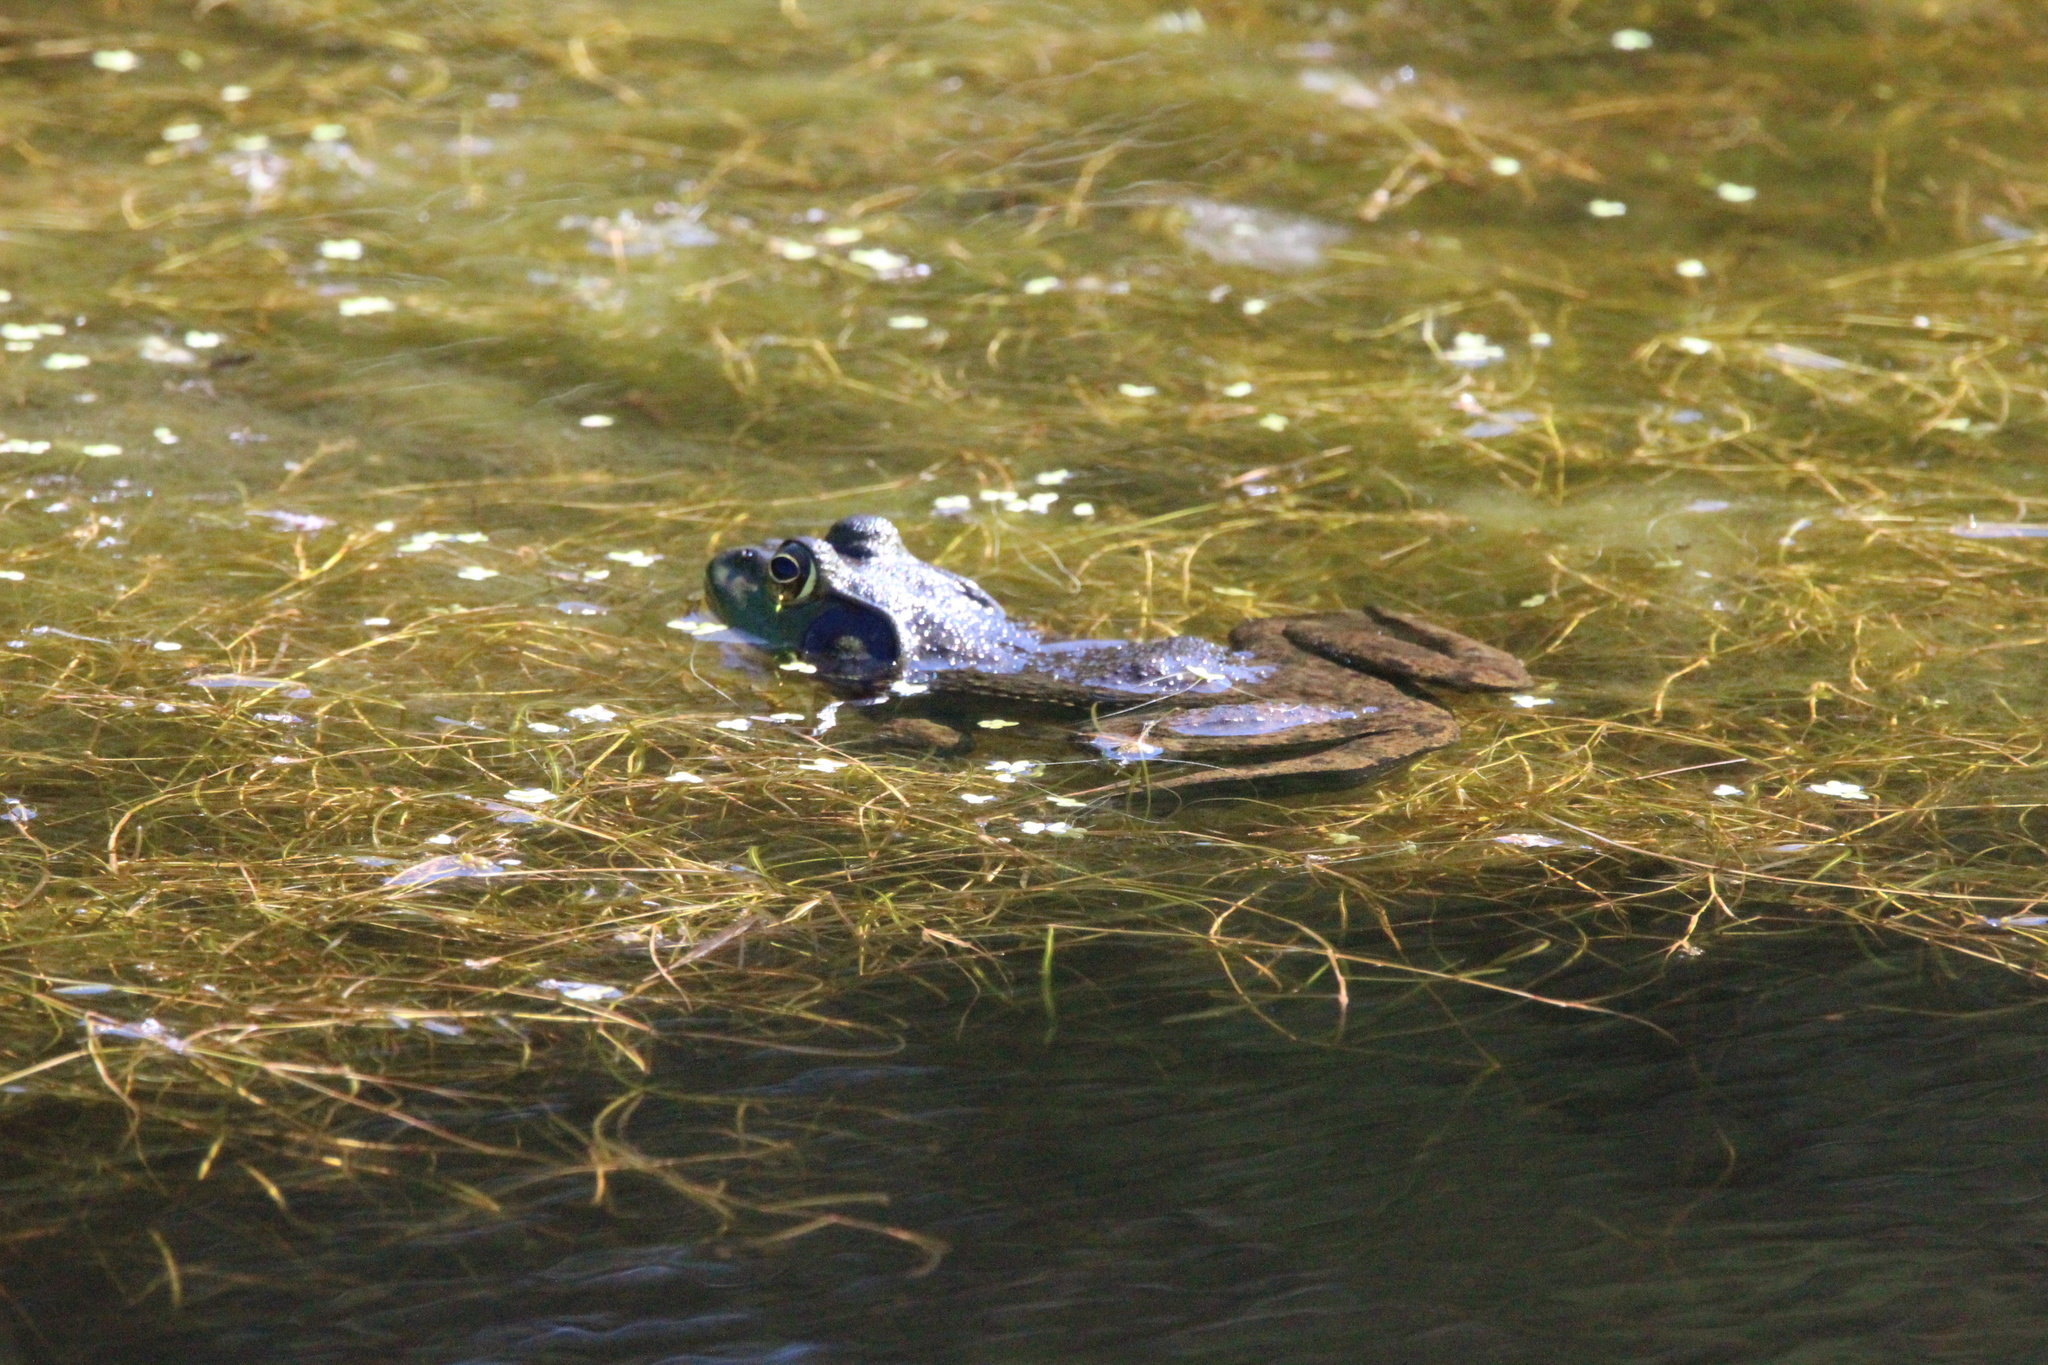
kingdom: Animalia
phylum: Chordata
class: Amphibia
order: Anura
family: Ranidae
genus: Lithobates
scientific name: Lithobates catesbeianus
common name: American bullfrog
